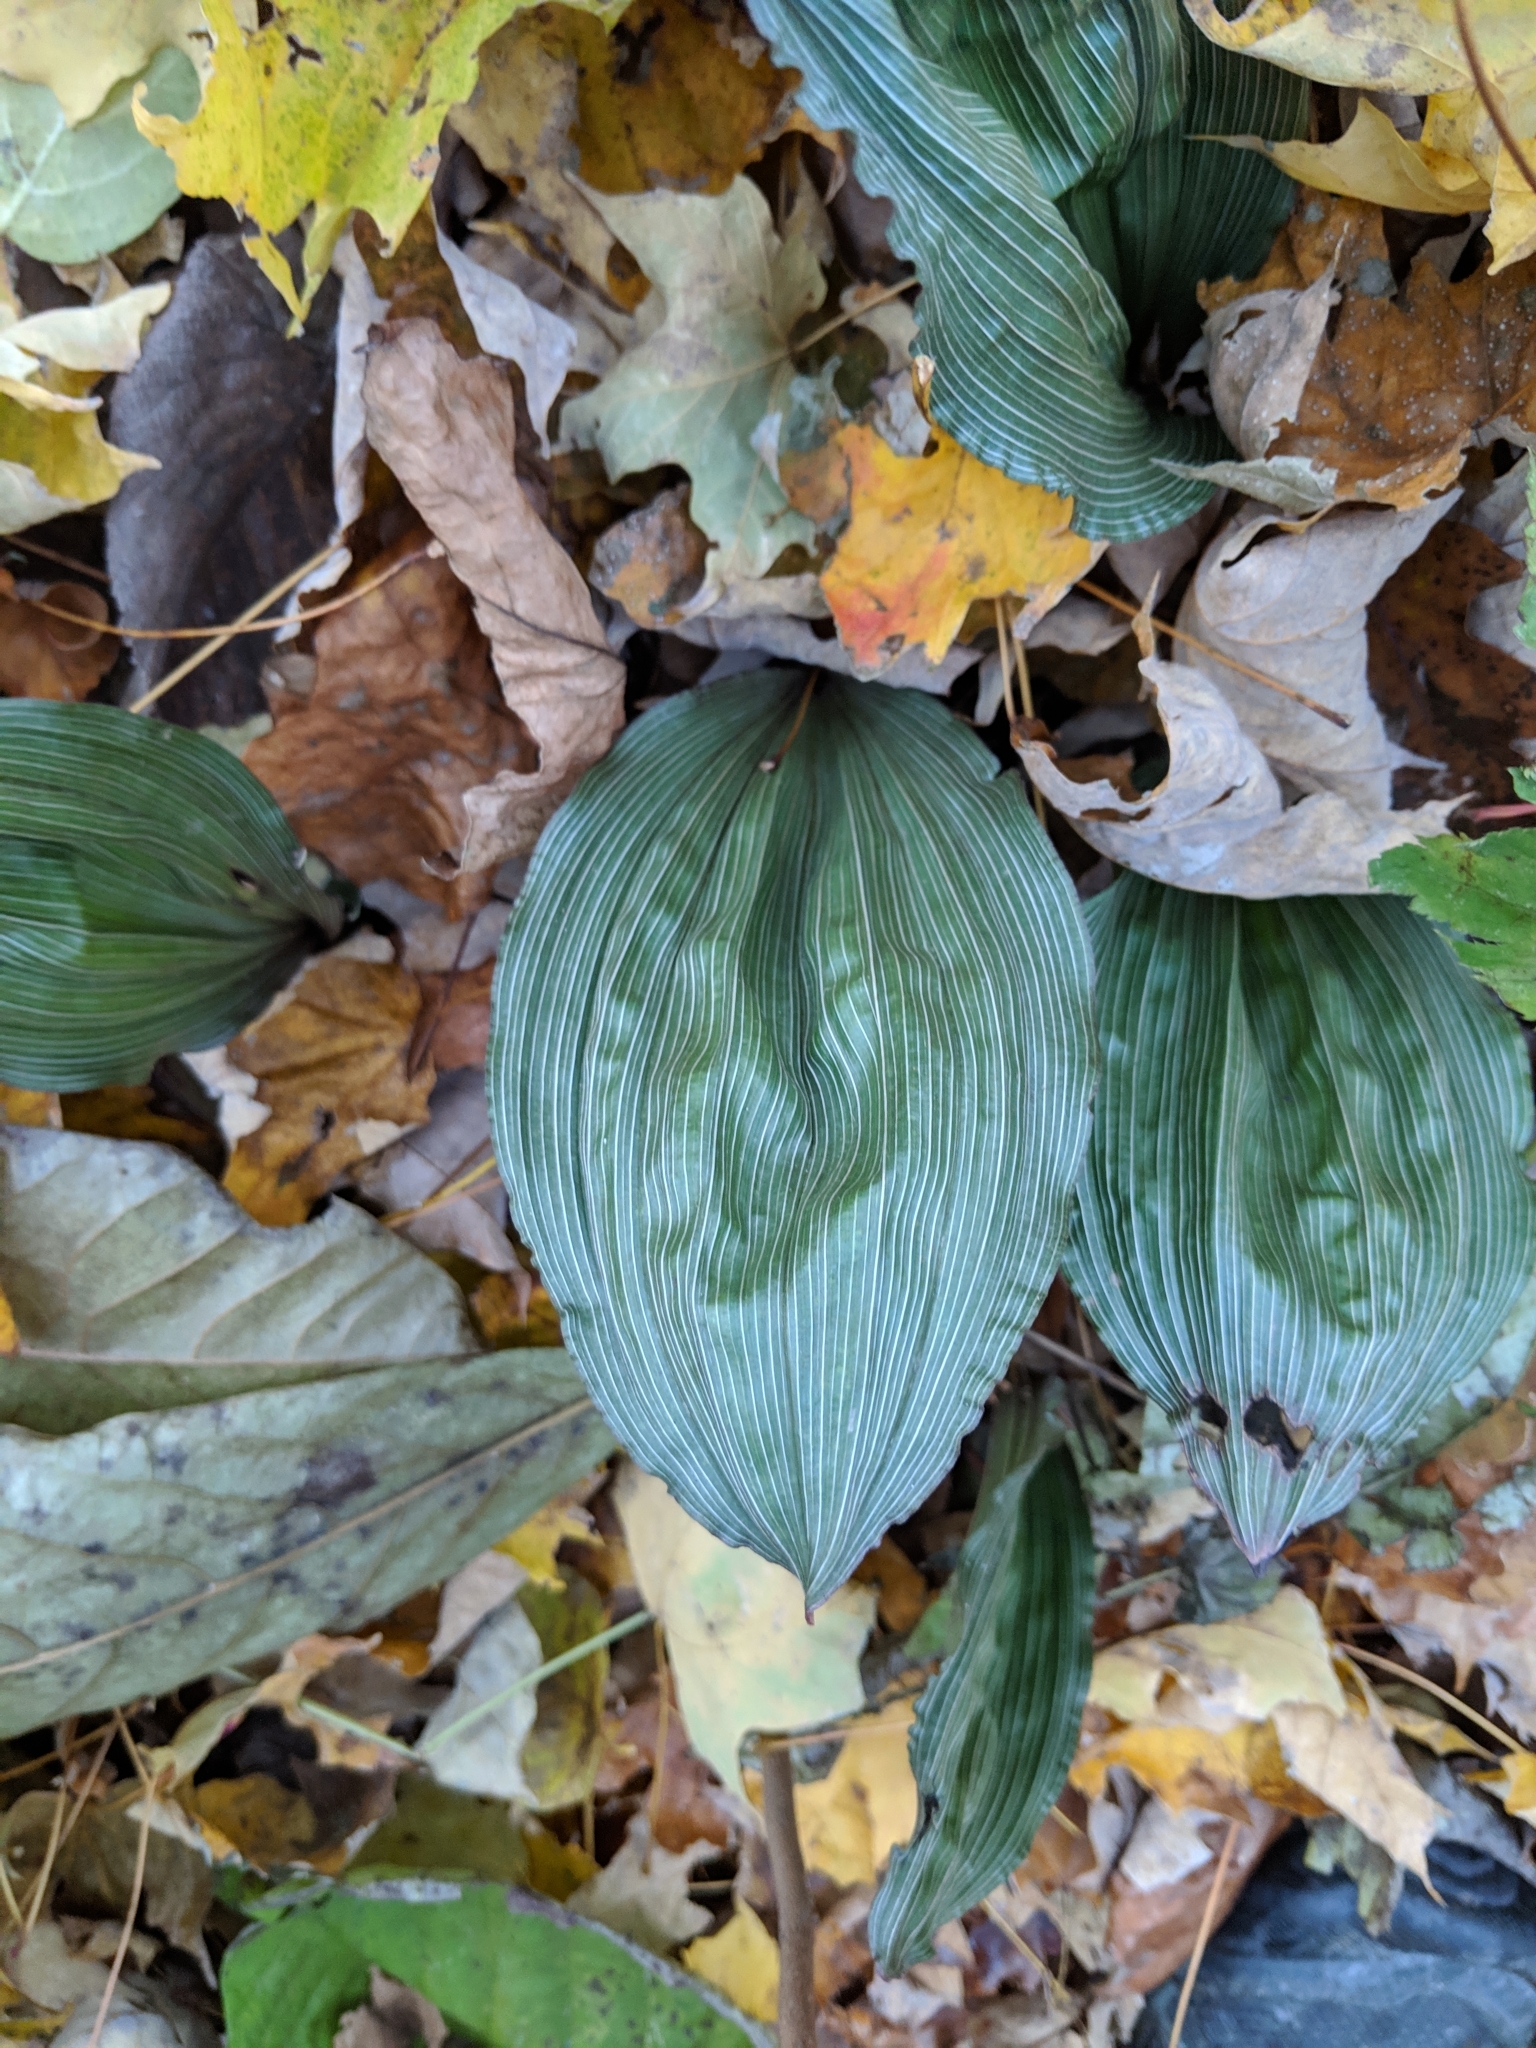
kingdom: Plantae
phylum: Tracheophyta
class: Liliopsida
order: Asparagales
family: Orchidaceae
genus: Aplectrum
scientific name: Aplectrum hyemale
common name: Adam-and-eve
